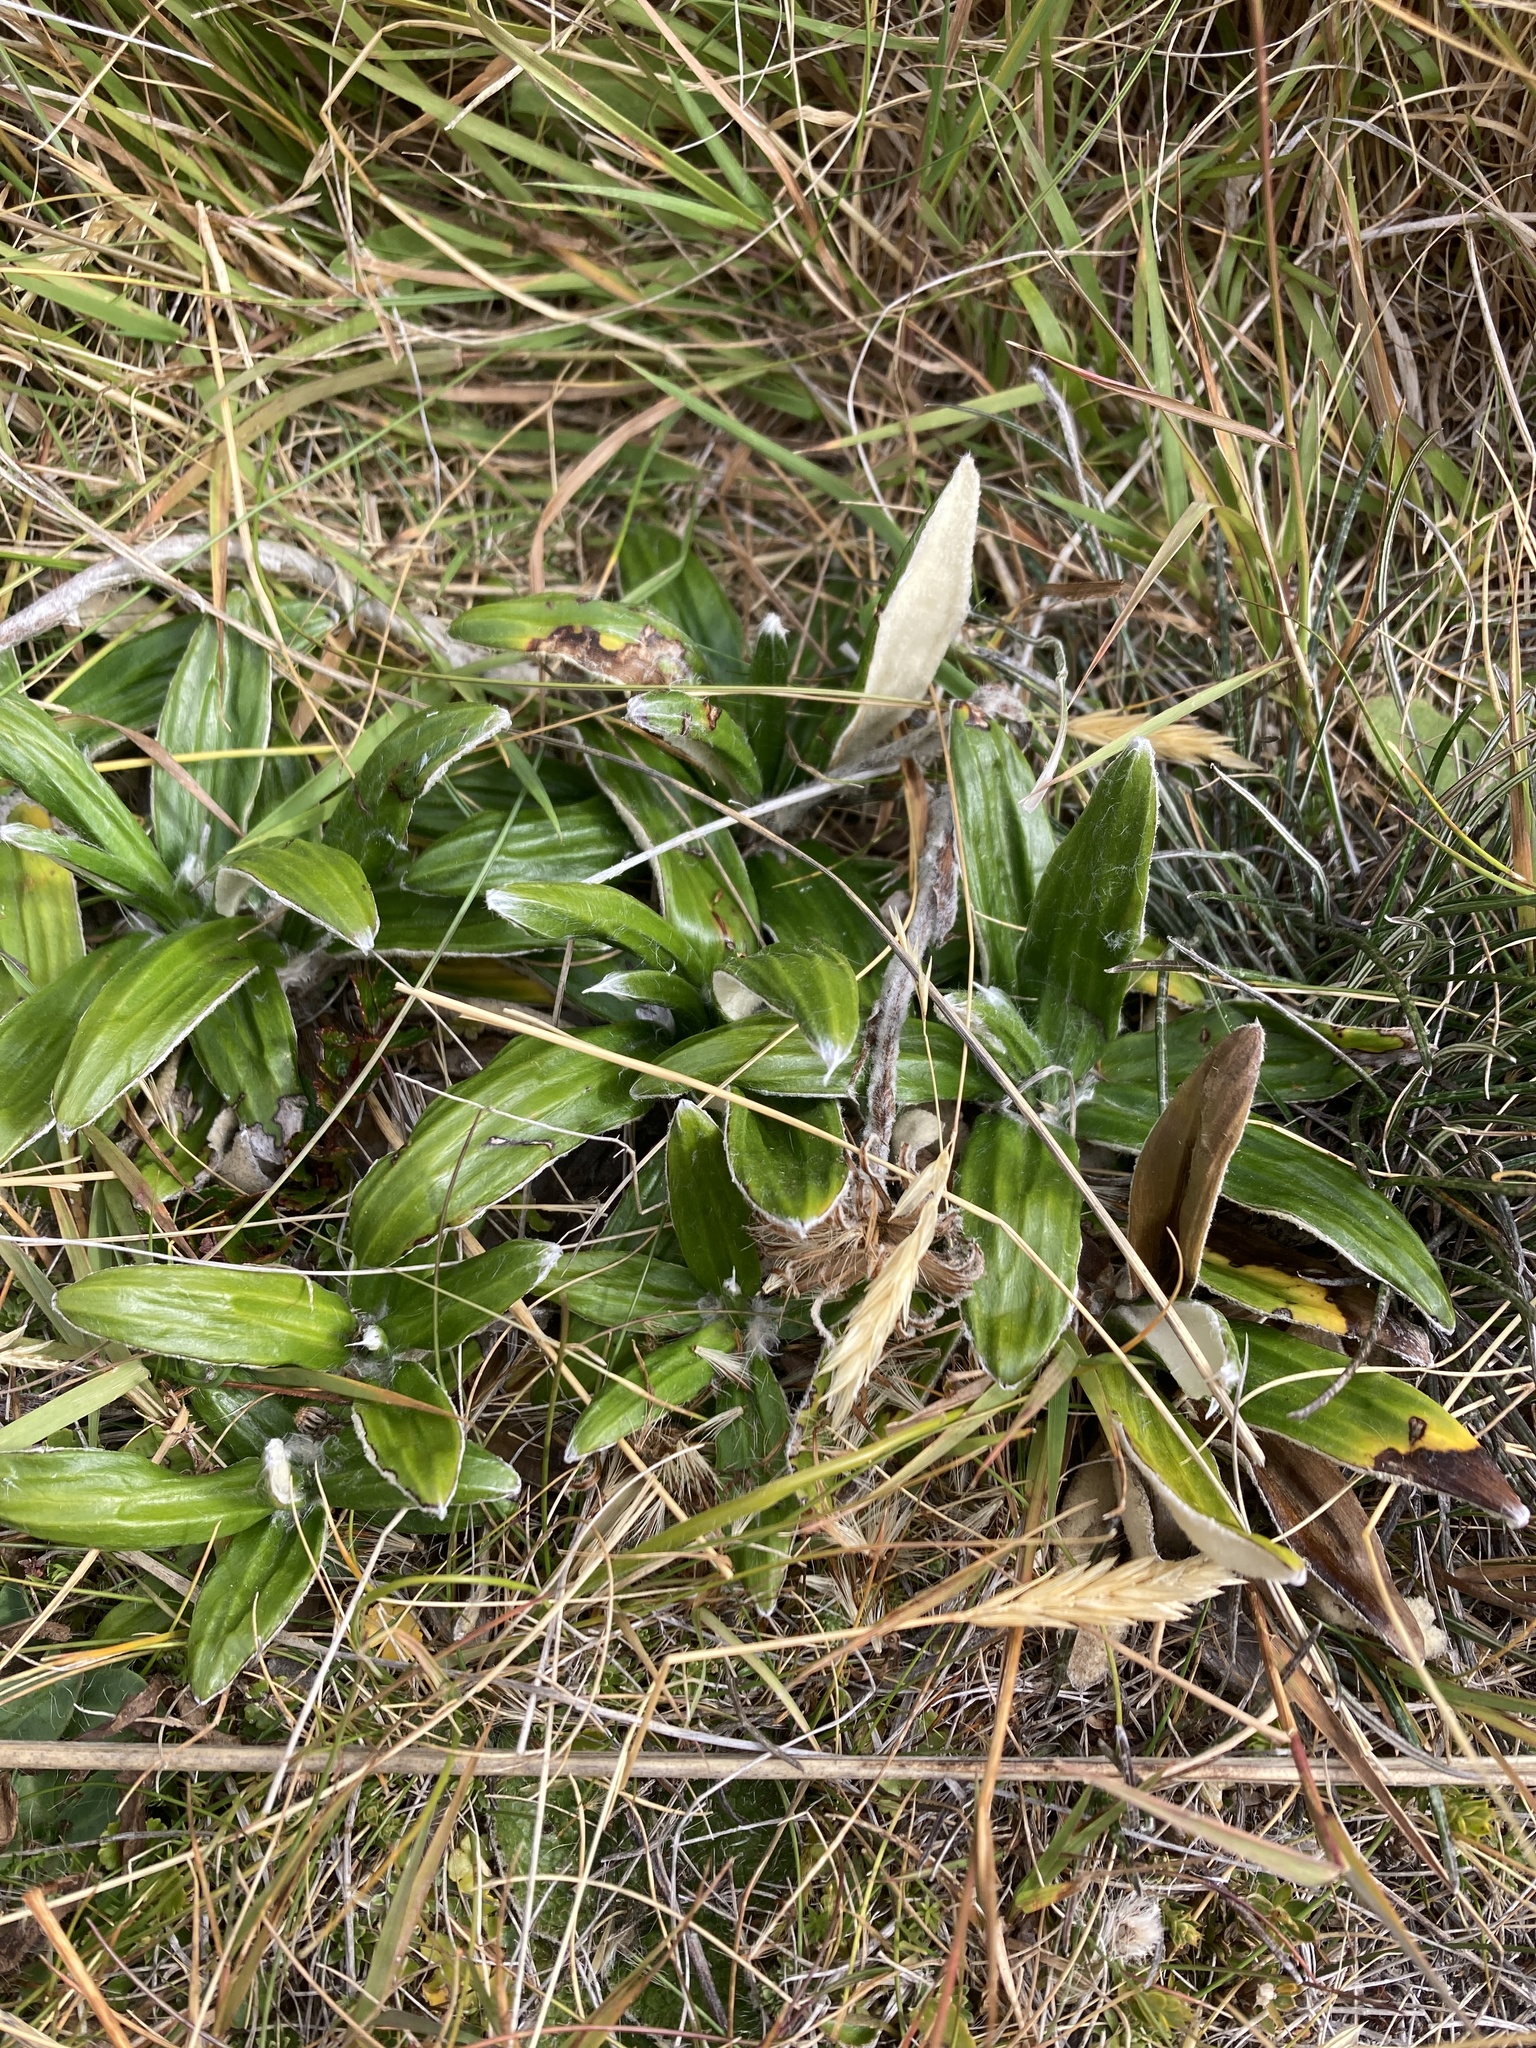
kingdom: Plantae
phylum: Tracheophyta
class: Magnoliopsida
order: Asterales
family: Asteraceae
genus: Celmisia
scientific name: Celmisia spectabilis
